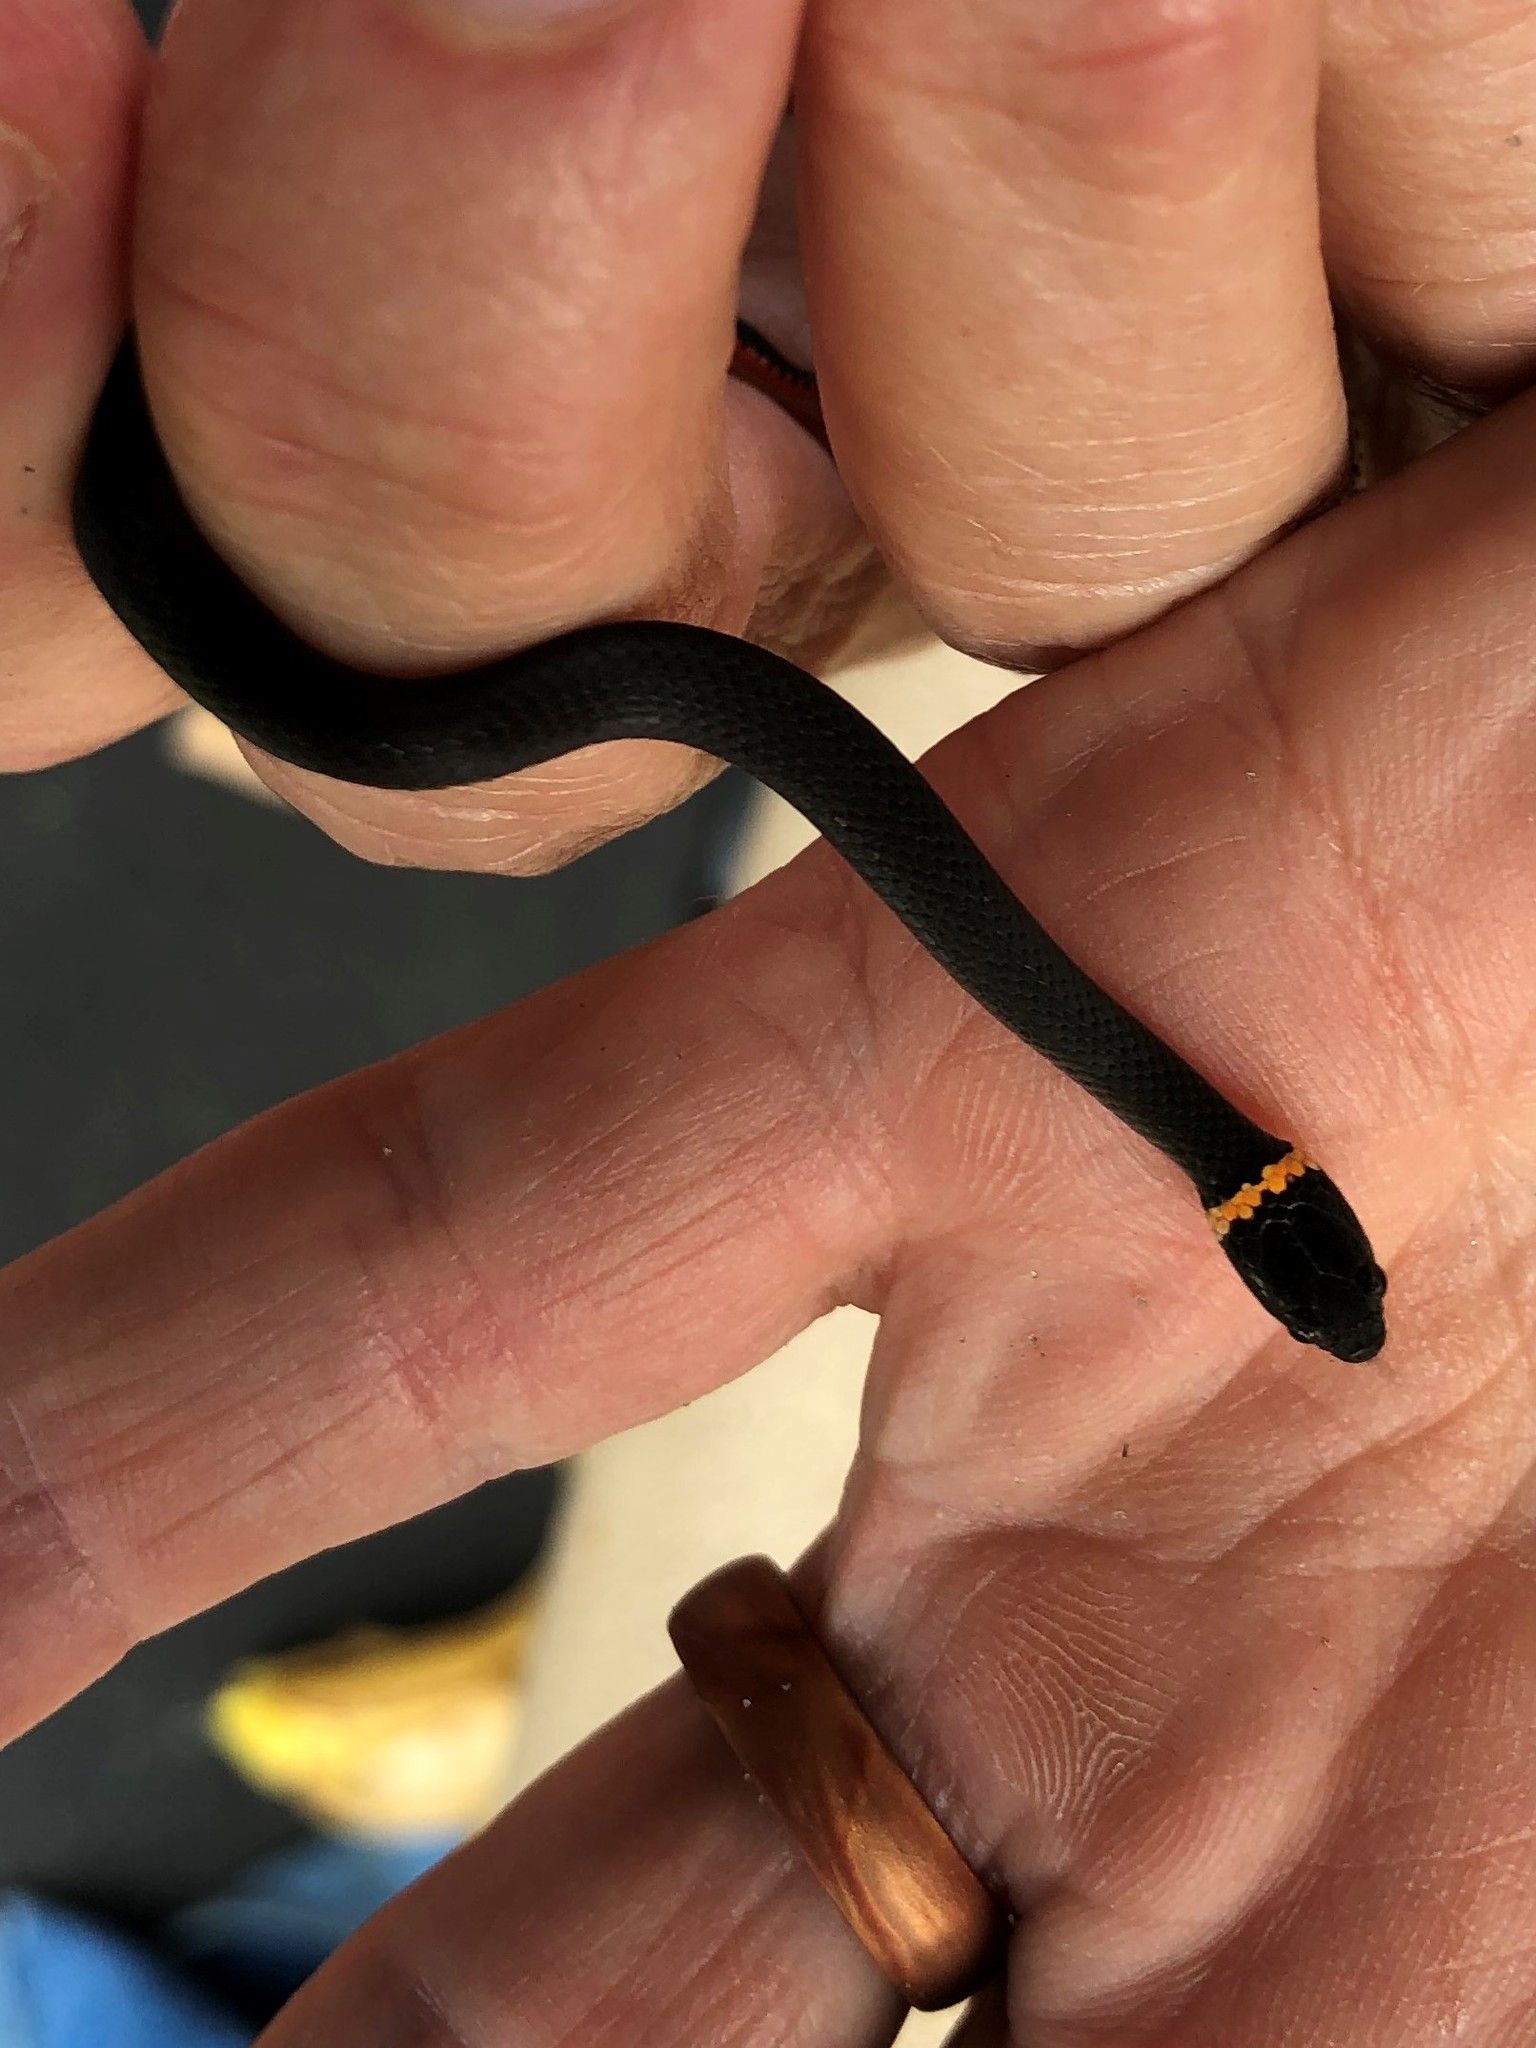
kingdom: Animalia
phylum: Chordata
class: Squamata
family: Colubridae
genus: Diadophis
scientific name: Diadophis punctatus
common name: Ringneck snake
